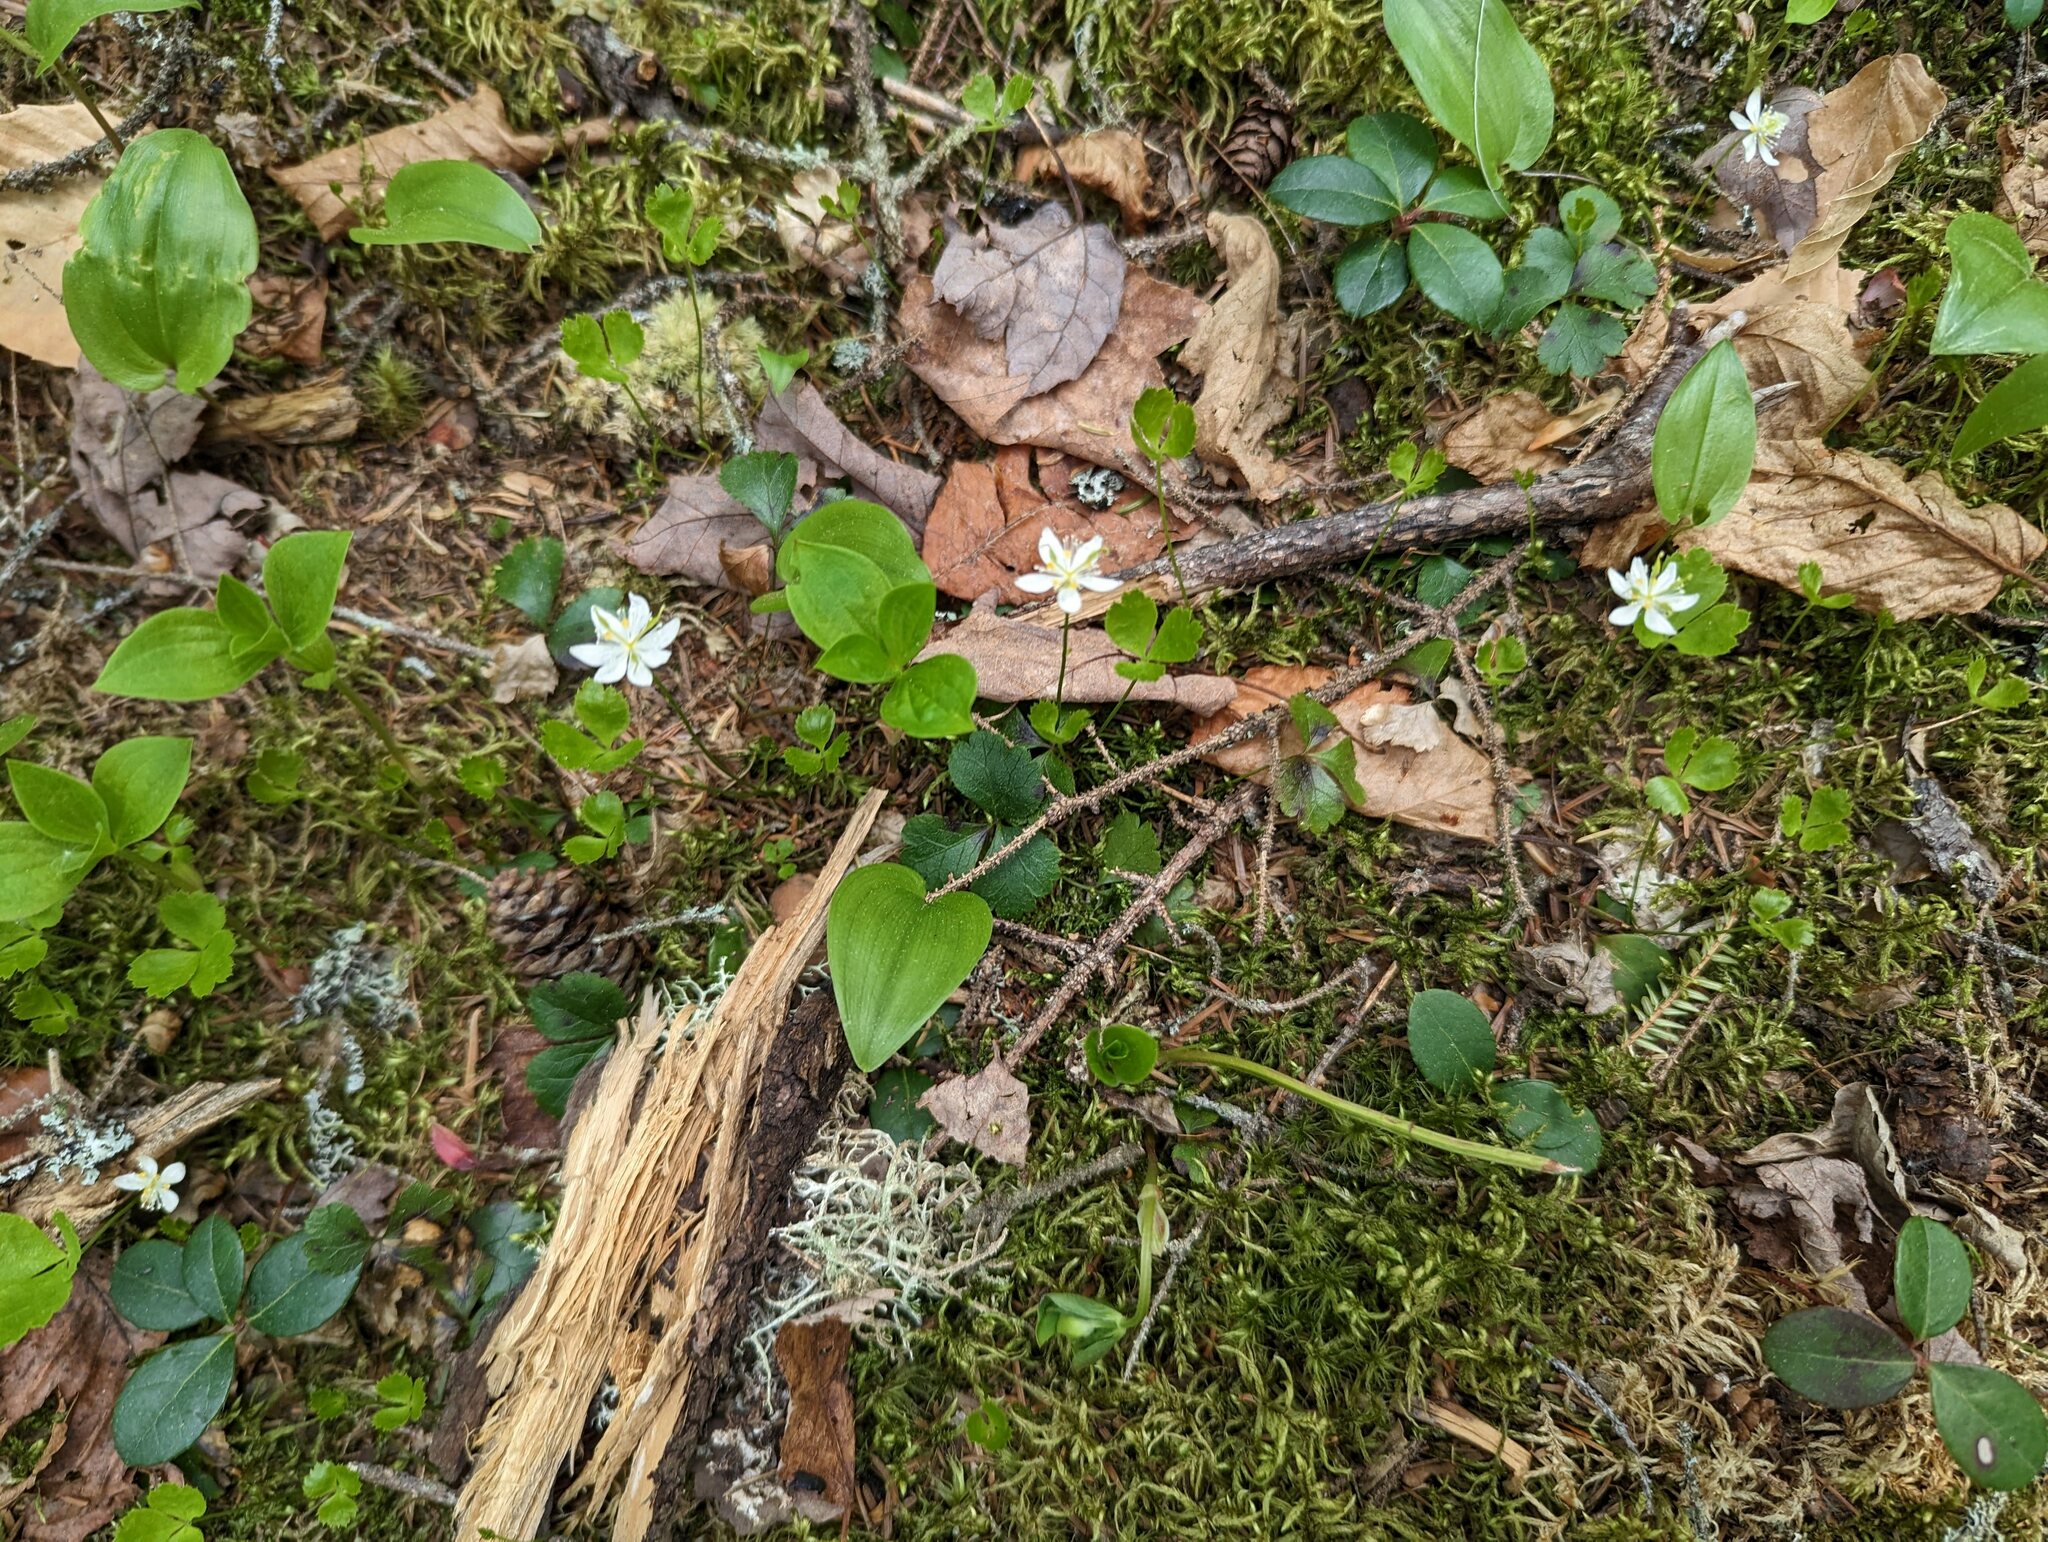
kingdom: Plantae
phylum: Tracheophyta
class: Magnoliopsida
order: Ranunculales
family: Ranunculaceae
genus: Coptis
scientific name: Coptis trifolia
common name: Canker-root
